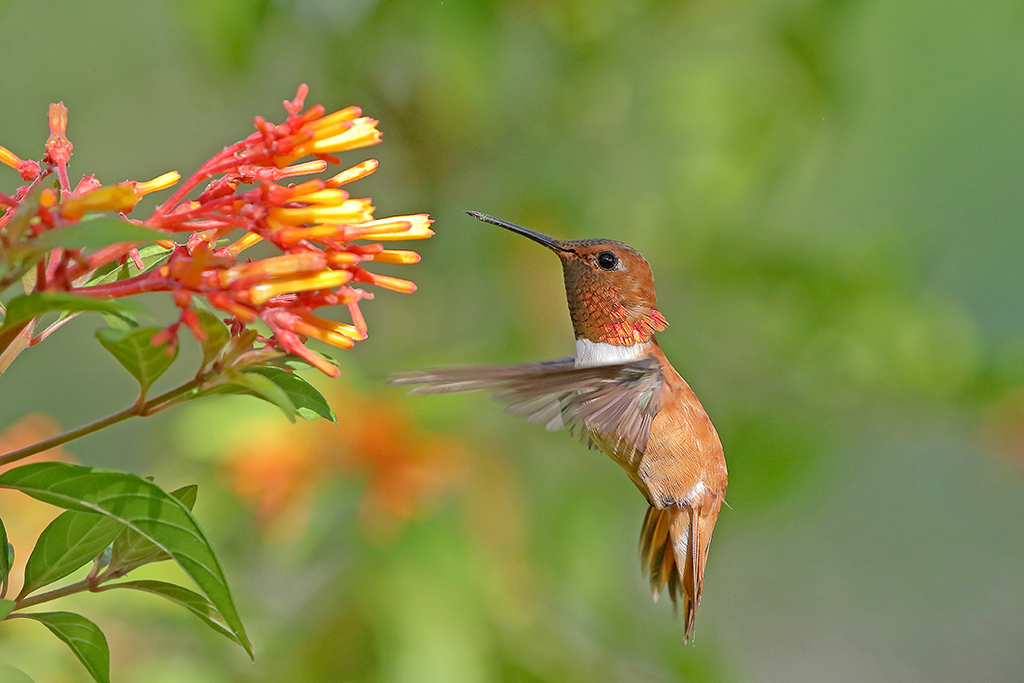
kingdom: Animalia
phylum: Chordata
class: Aves
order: Apodiformes
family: Trochilidae
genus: Selasphorus
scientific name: Selasphorus rufus
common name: Rufous hummingbird
